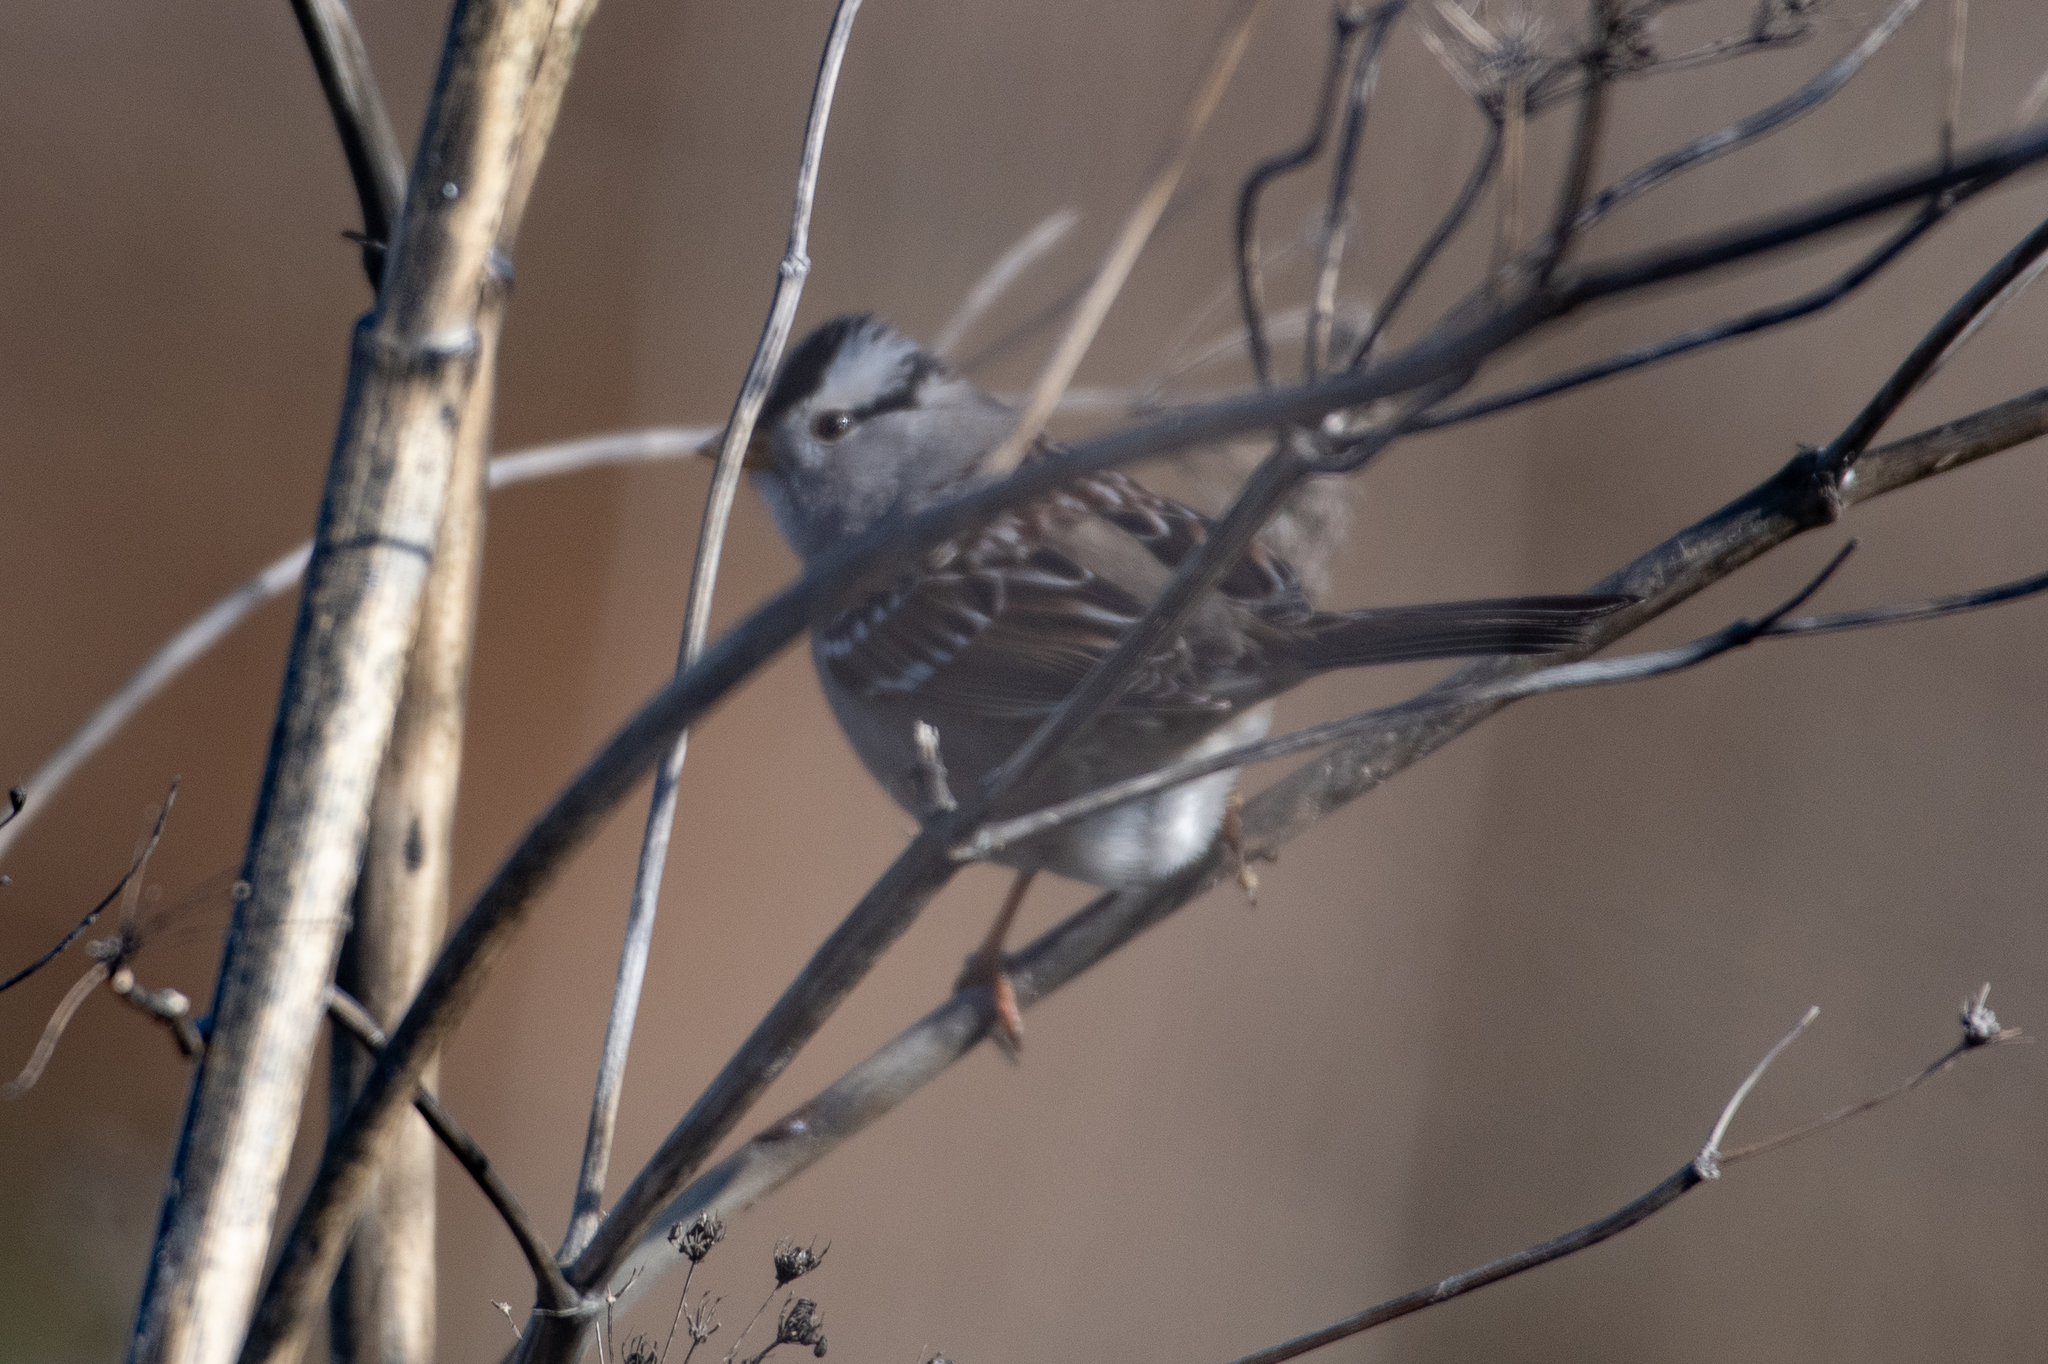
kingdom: Animalia
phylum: Chordata
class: Aves
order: Passeriformes
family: Passerellidae
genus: Zonotrichia
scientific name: Zonotrichia leucophrys
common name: White-crowned sparrow
